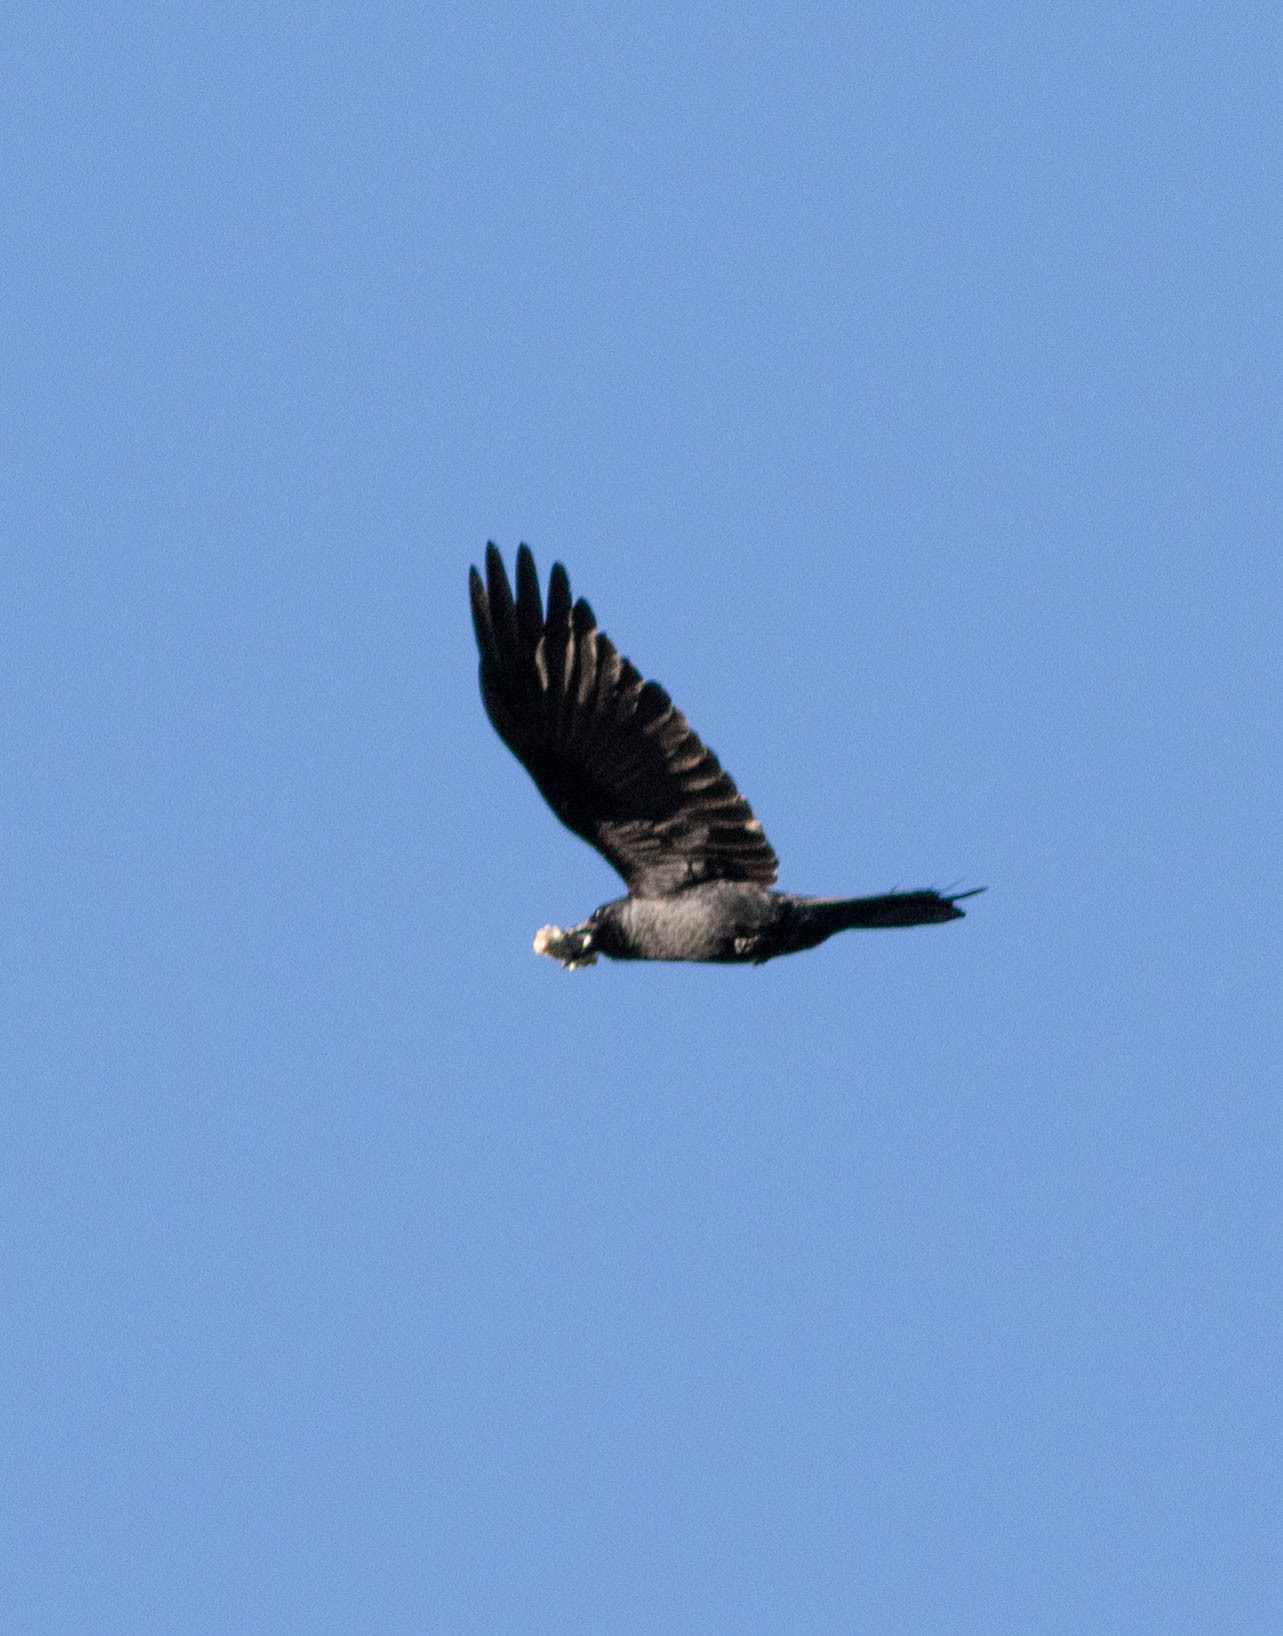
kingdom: Animalia
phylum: Chordata
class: Aves
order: Passeriformes
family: Corvidae
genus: Corvus
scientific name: Corvus brachyrhynchos
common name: American crow
